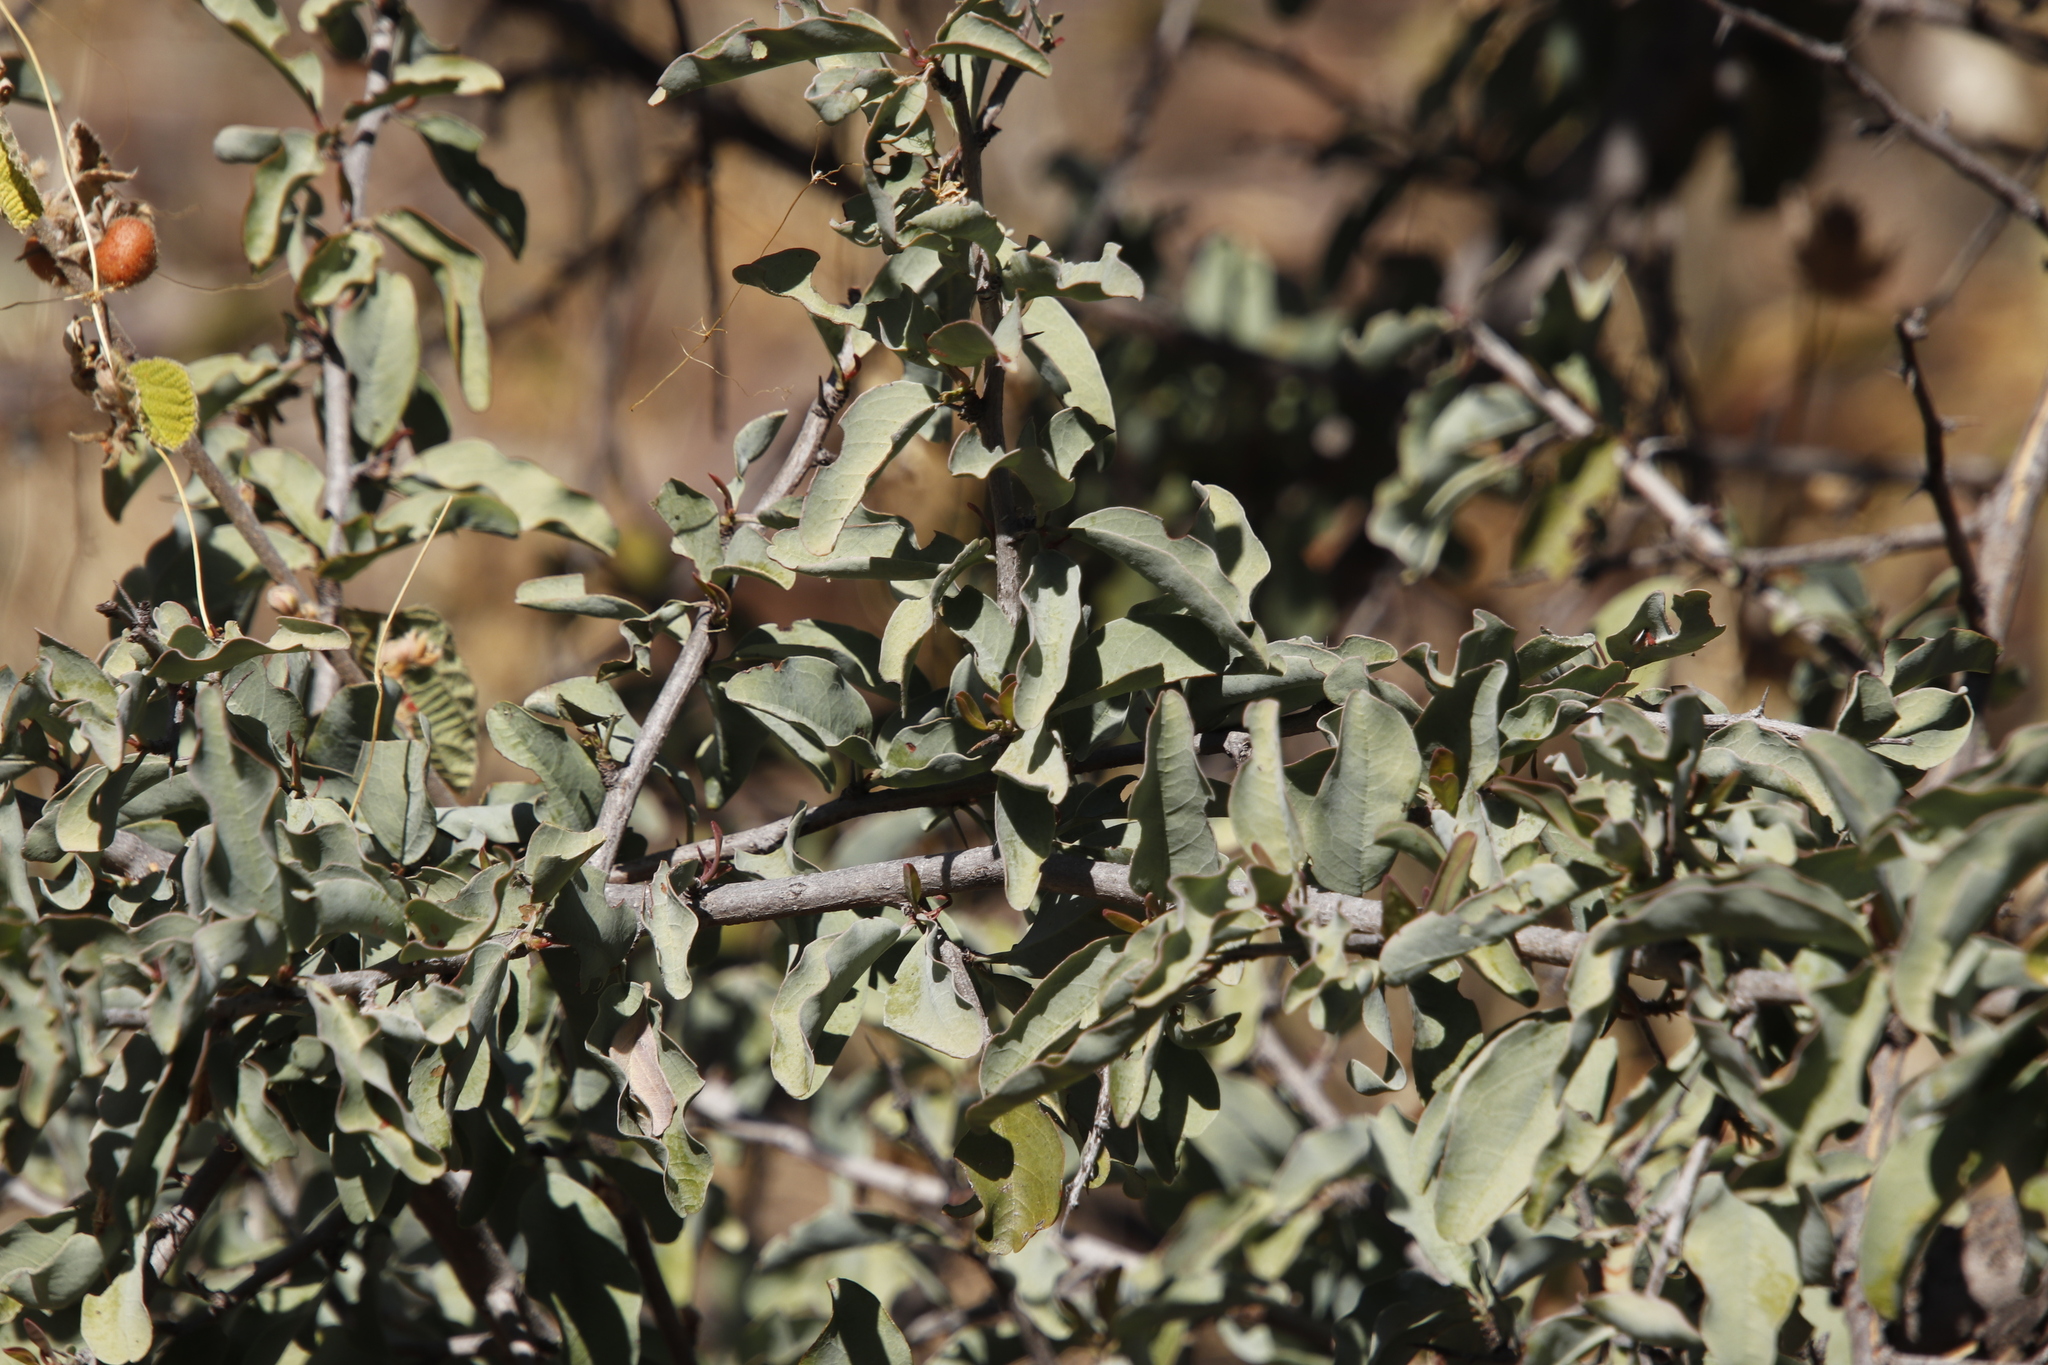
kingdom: Plantae
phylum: Tracheophyta
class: Magnoliopsida
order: Santalales
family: Ximeniaceae
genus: Ximenia
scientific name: Ximenia americana
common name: Tallowwood
